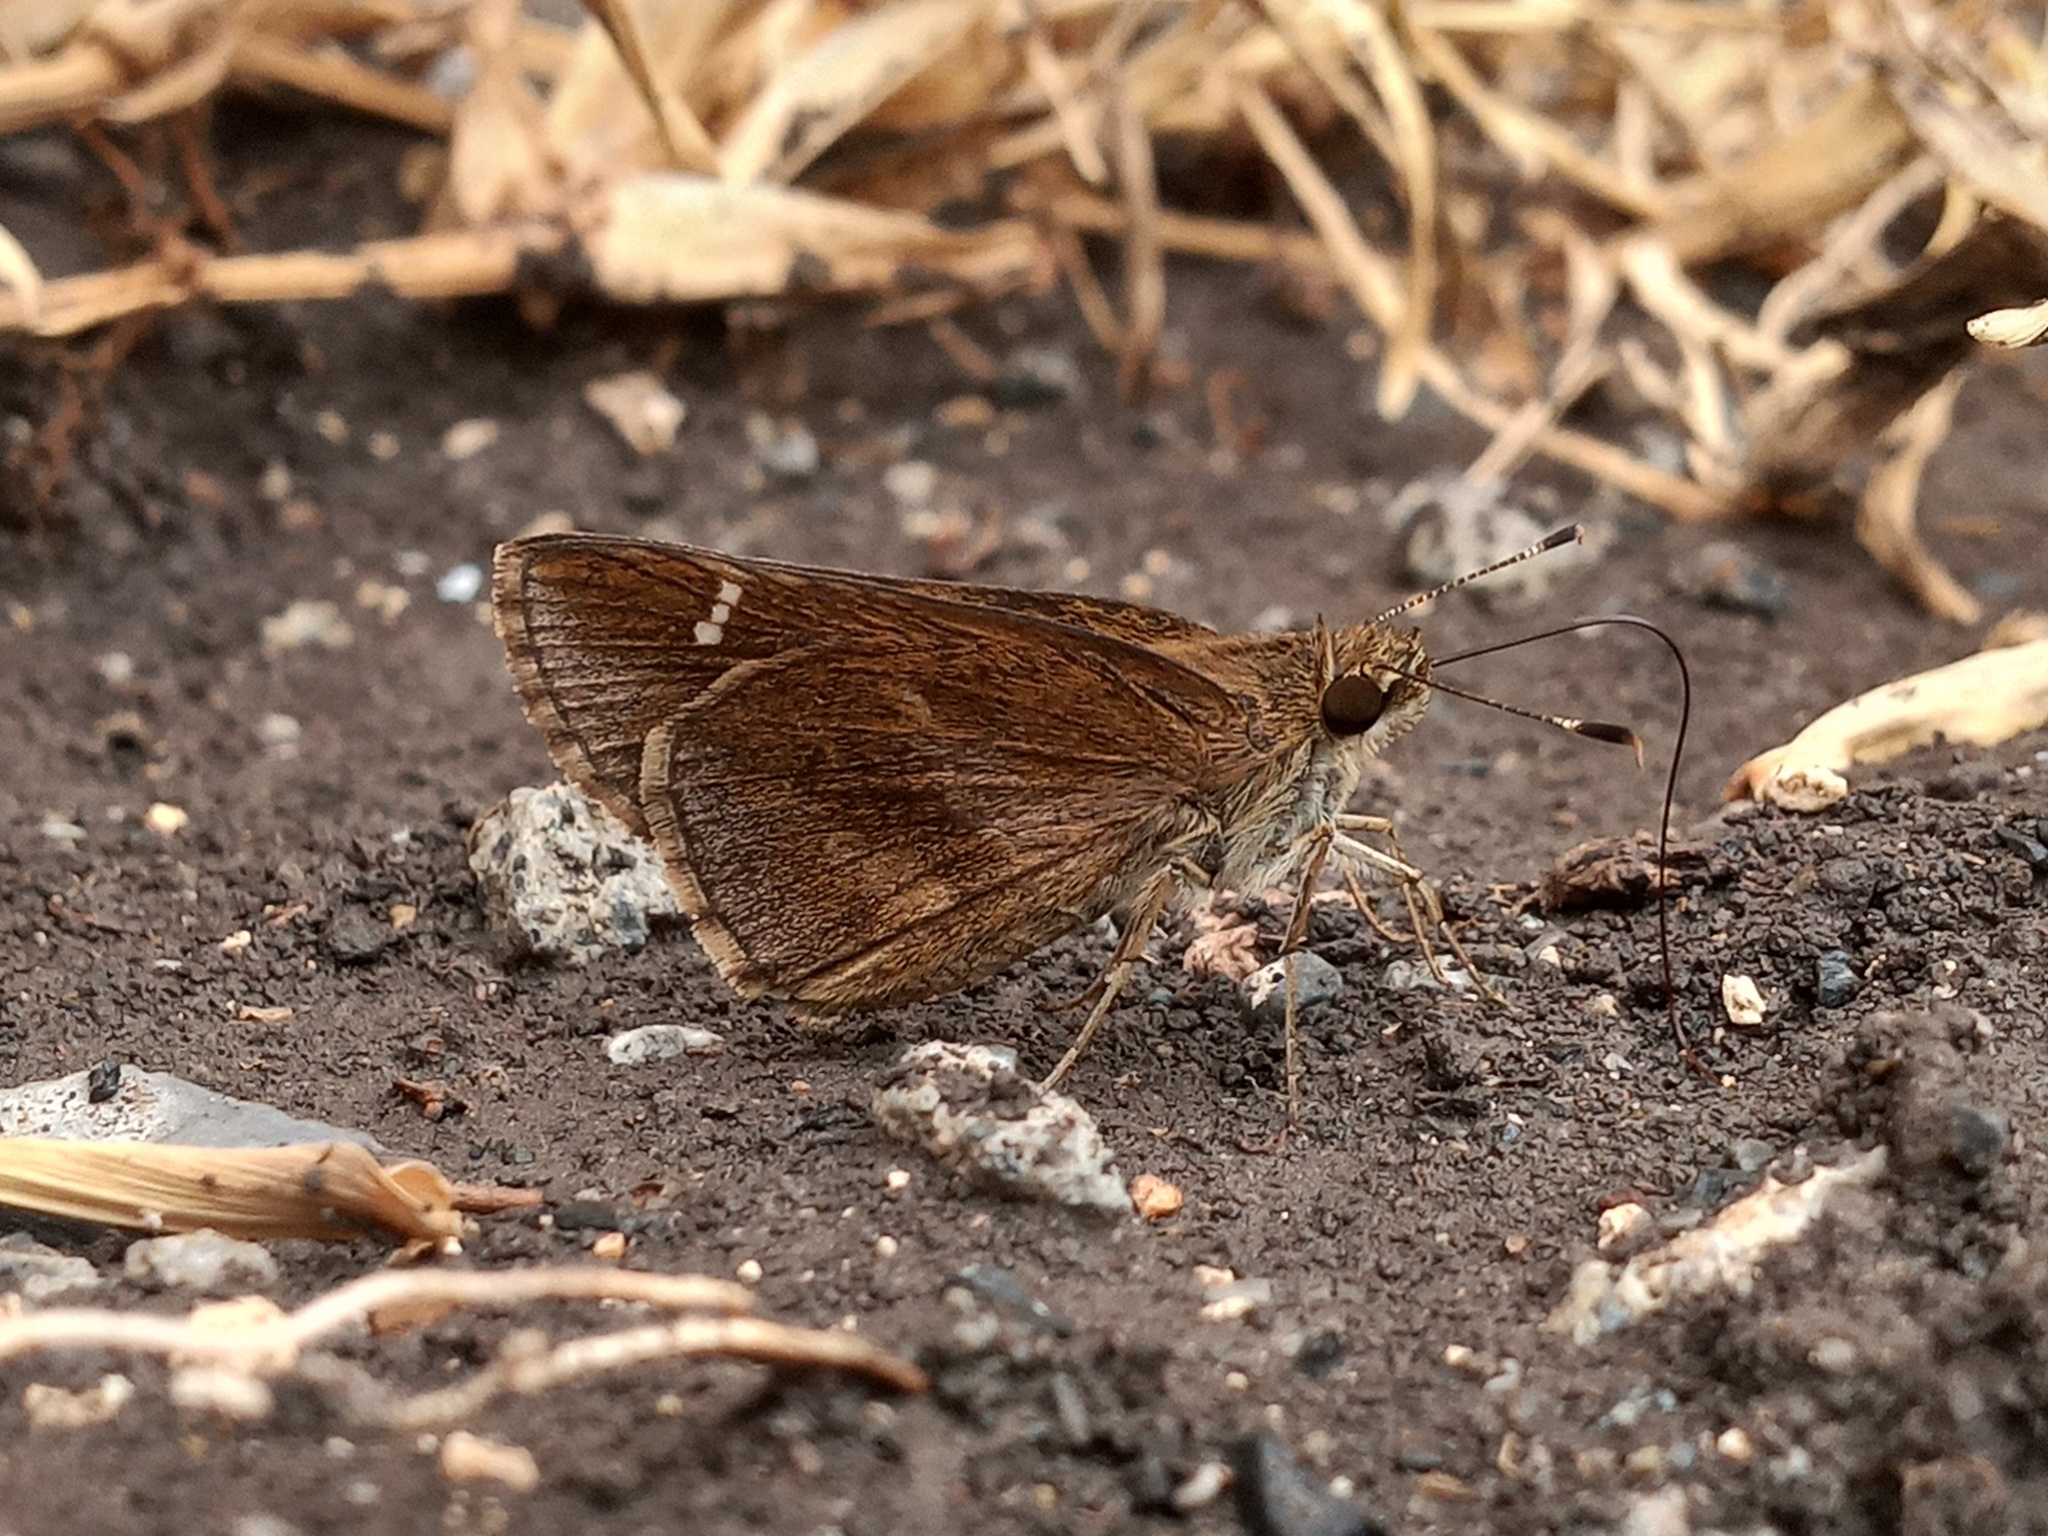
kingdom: Animalia
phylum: Arthropoda
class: Insecta
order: Lepidoptera
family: Hesperiidae
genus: Lerema
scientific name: Lerema accius
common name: Clouded skipper
